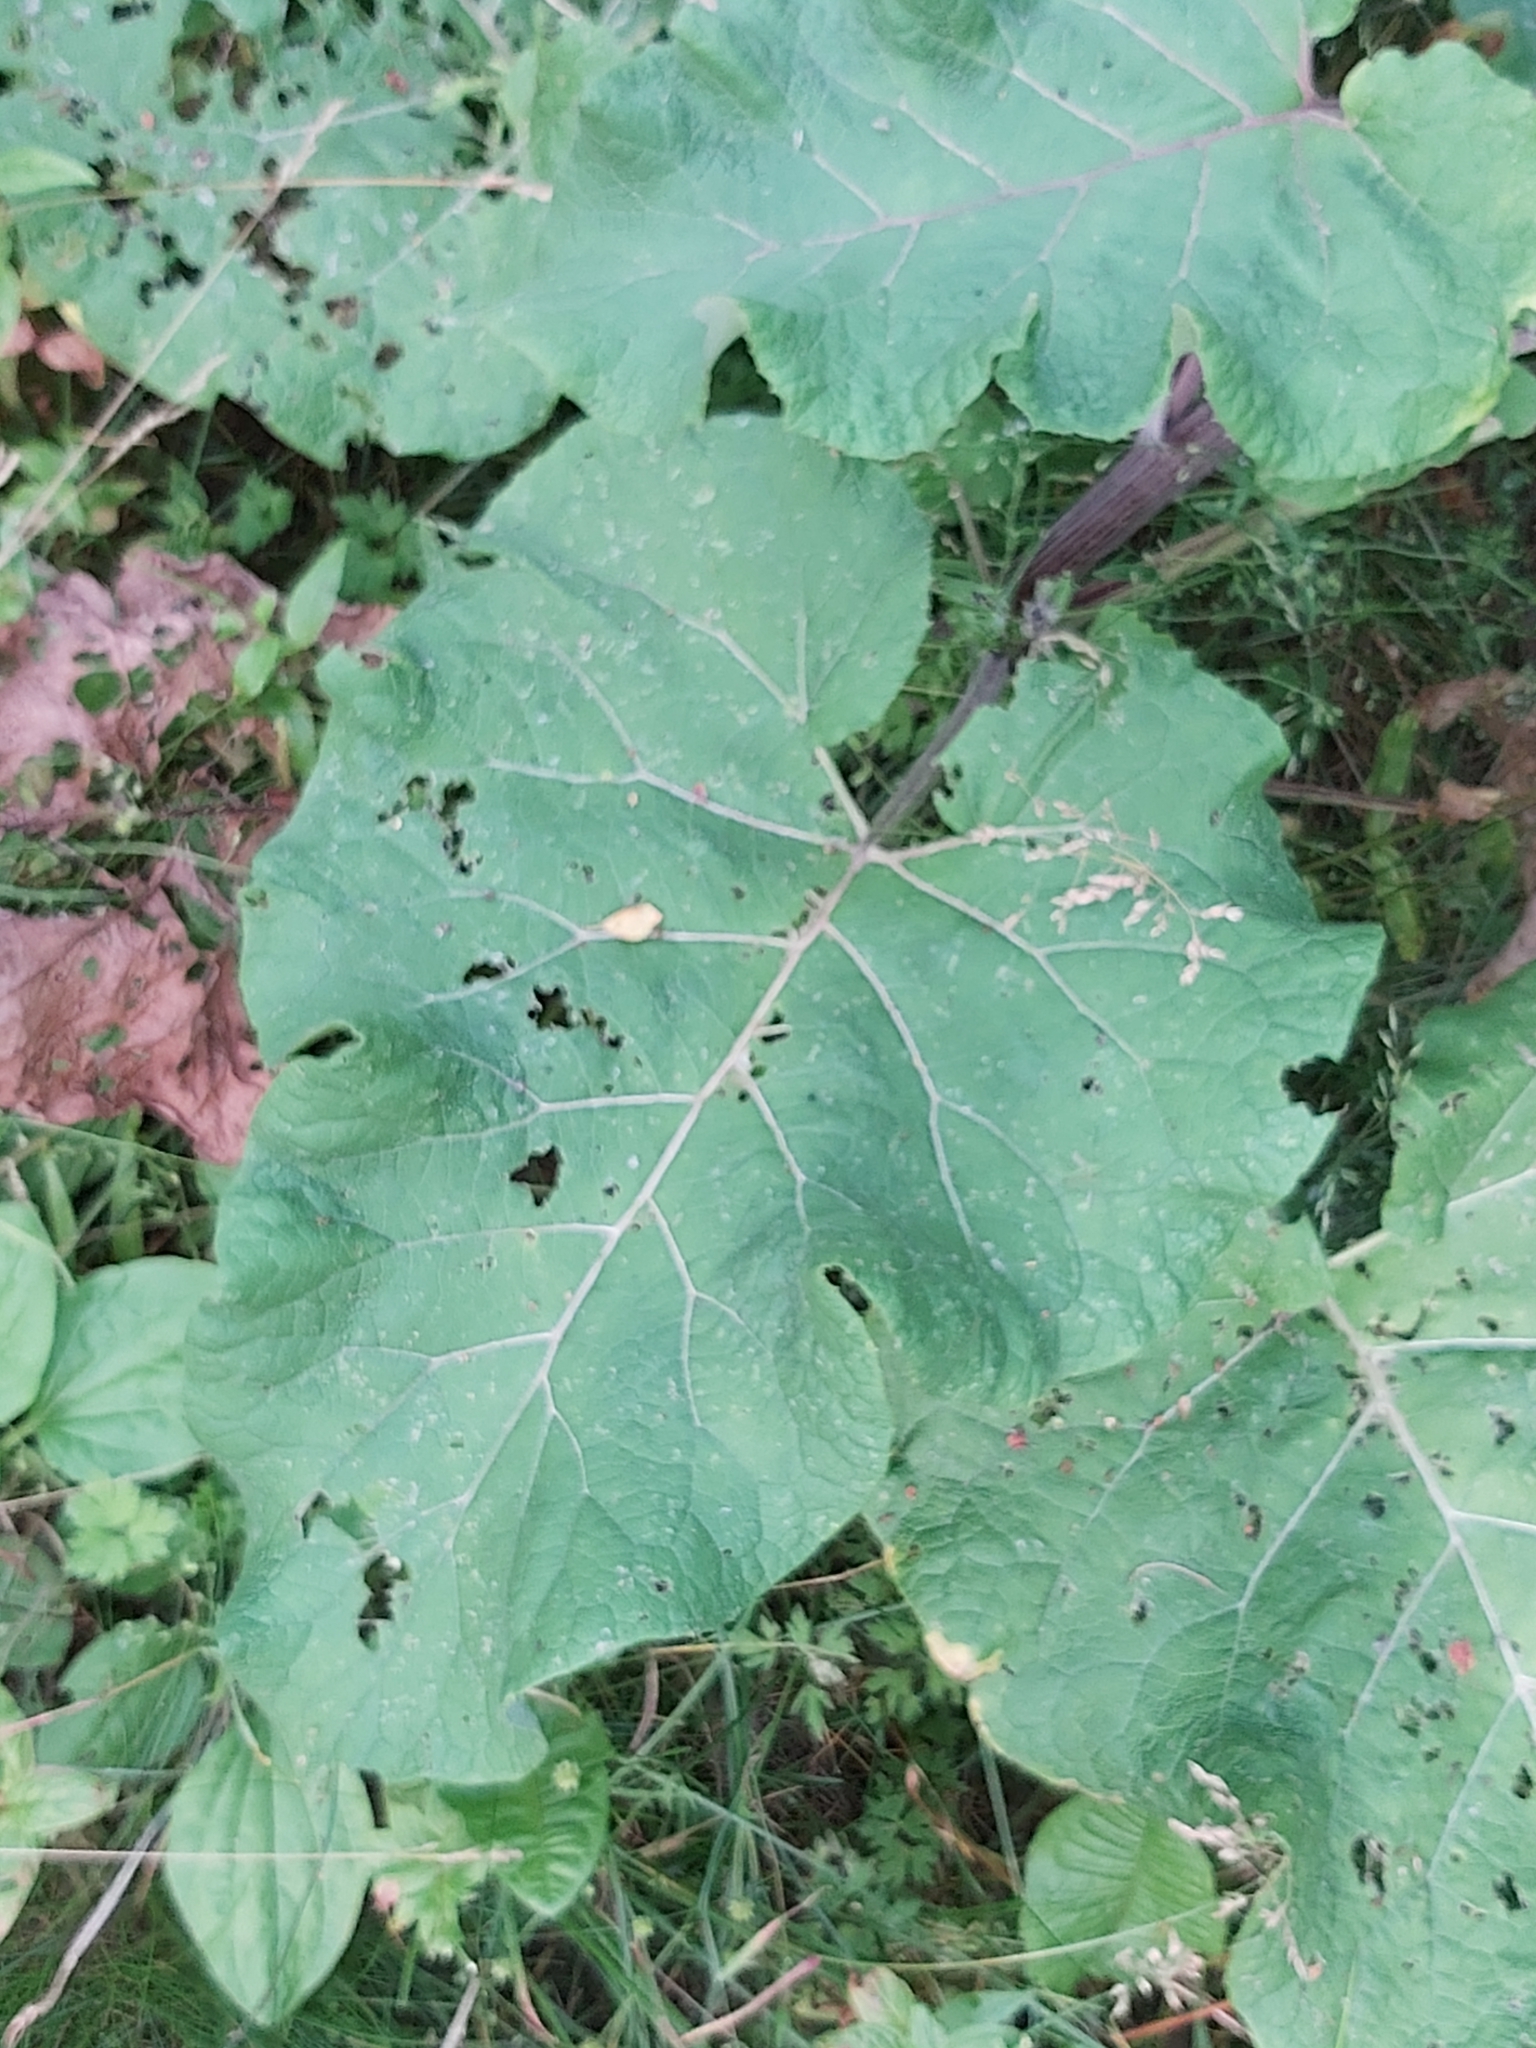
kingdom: Plantae
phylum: Tracheophyta
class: Magnoliopsida
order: Asterales
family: Asteraceae
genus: Arctium
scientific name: Arctium tomentosum
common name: Woolly burdock
